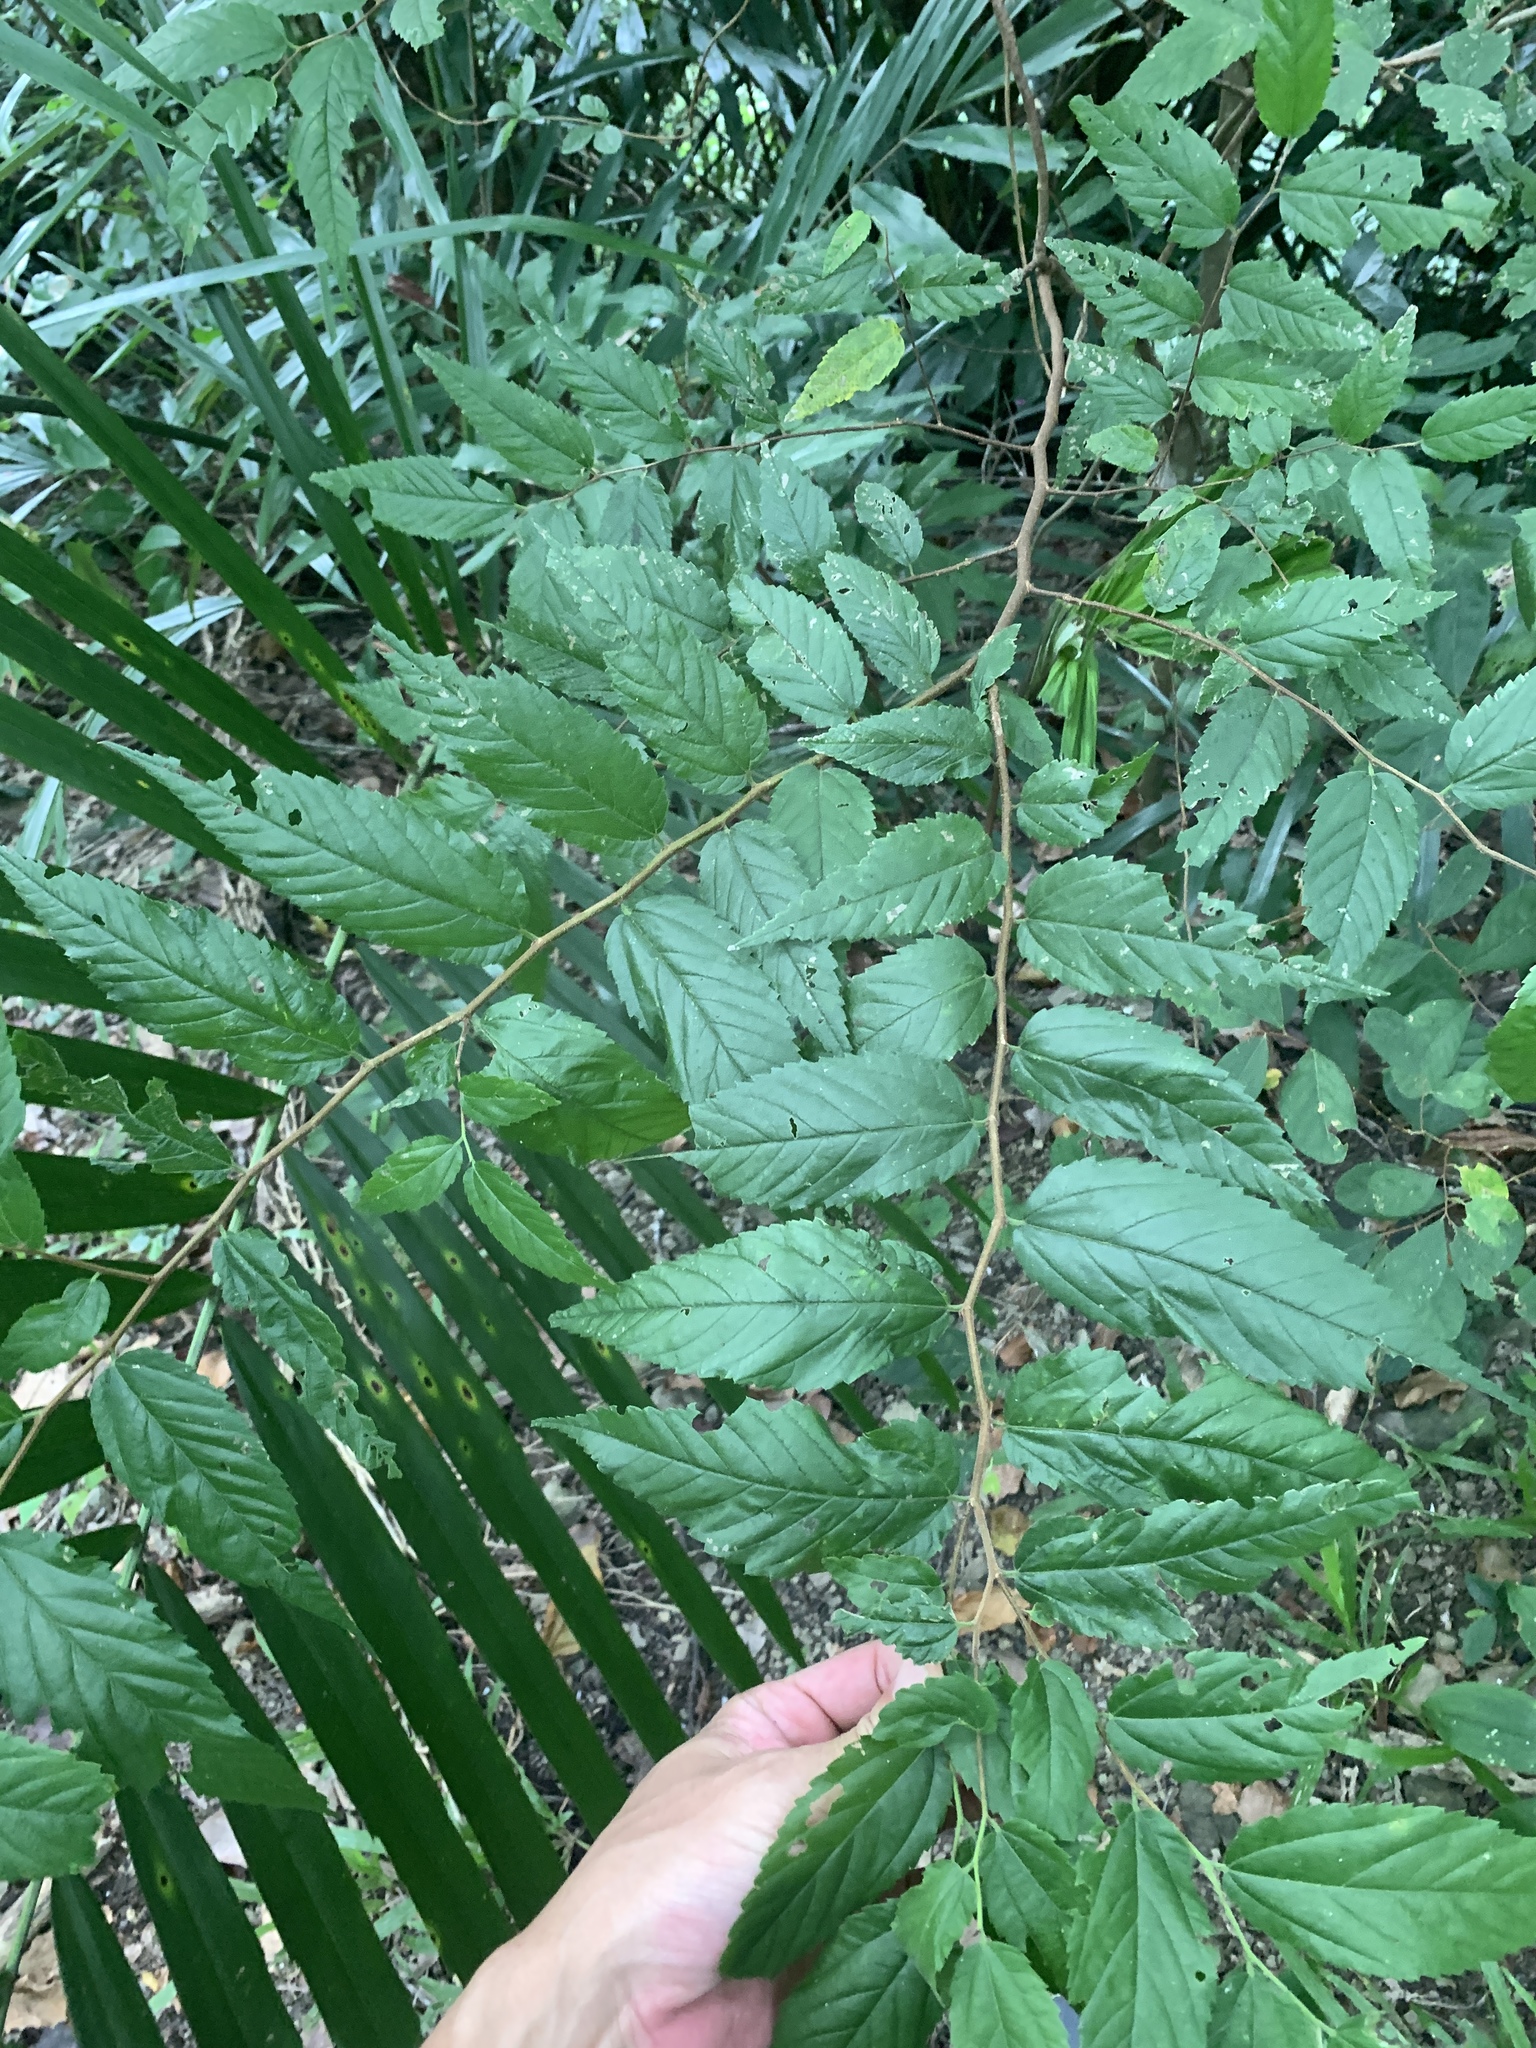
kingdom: Plantae
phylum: Tracheophyta
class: Magnoliopsida
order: Rosales
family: Cannabaceae
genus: Aphananthe
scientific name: Aphananthe aspera
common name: Mukutree
